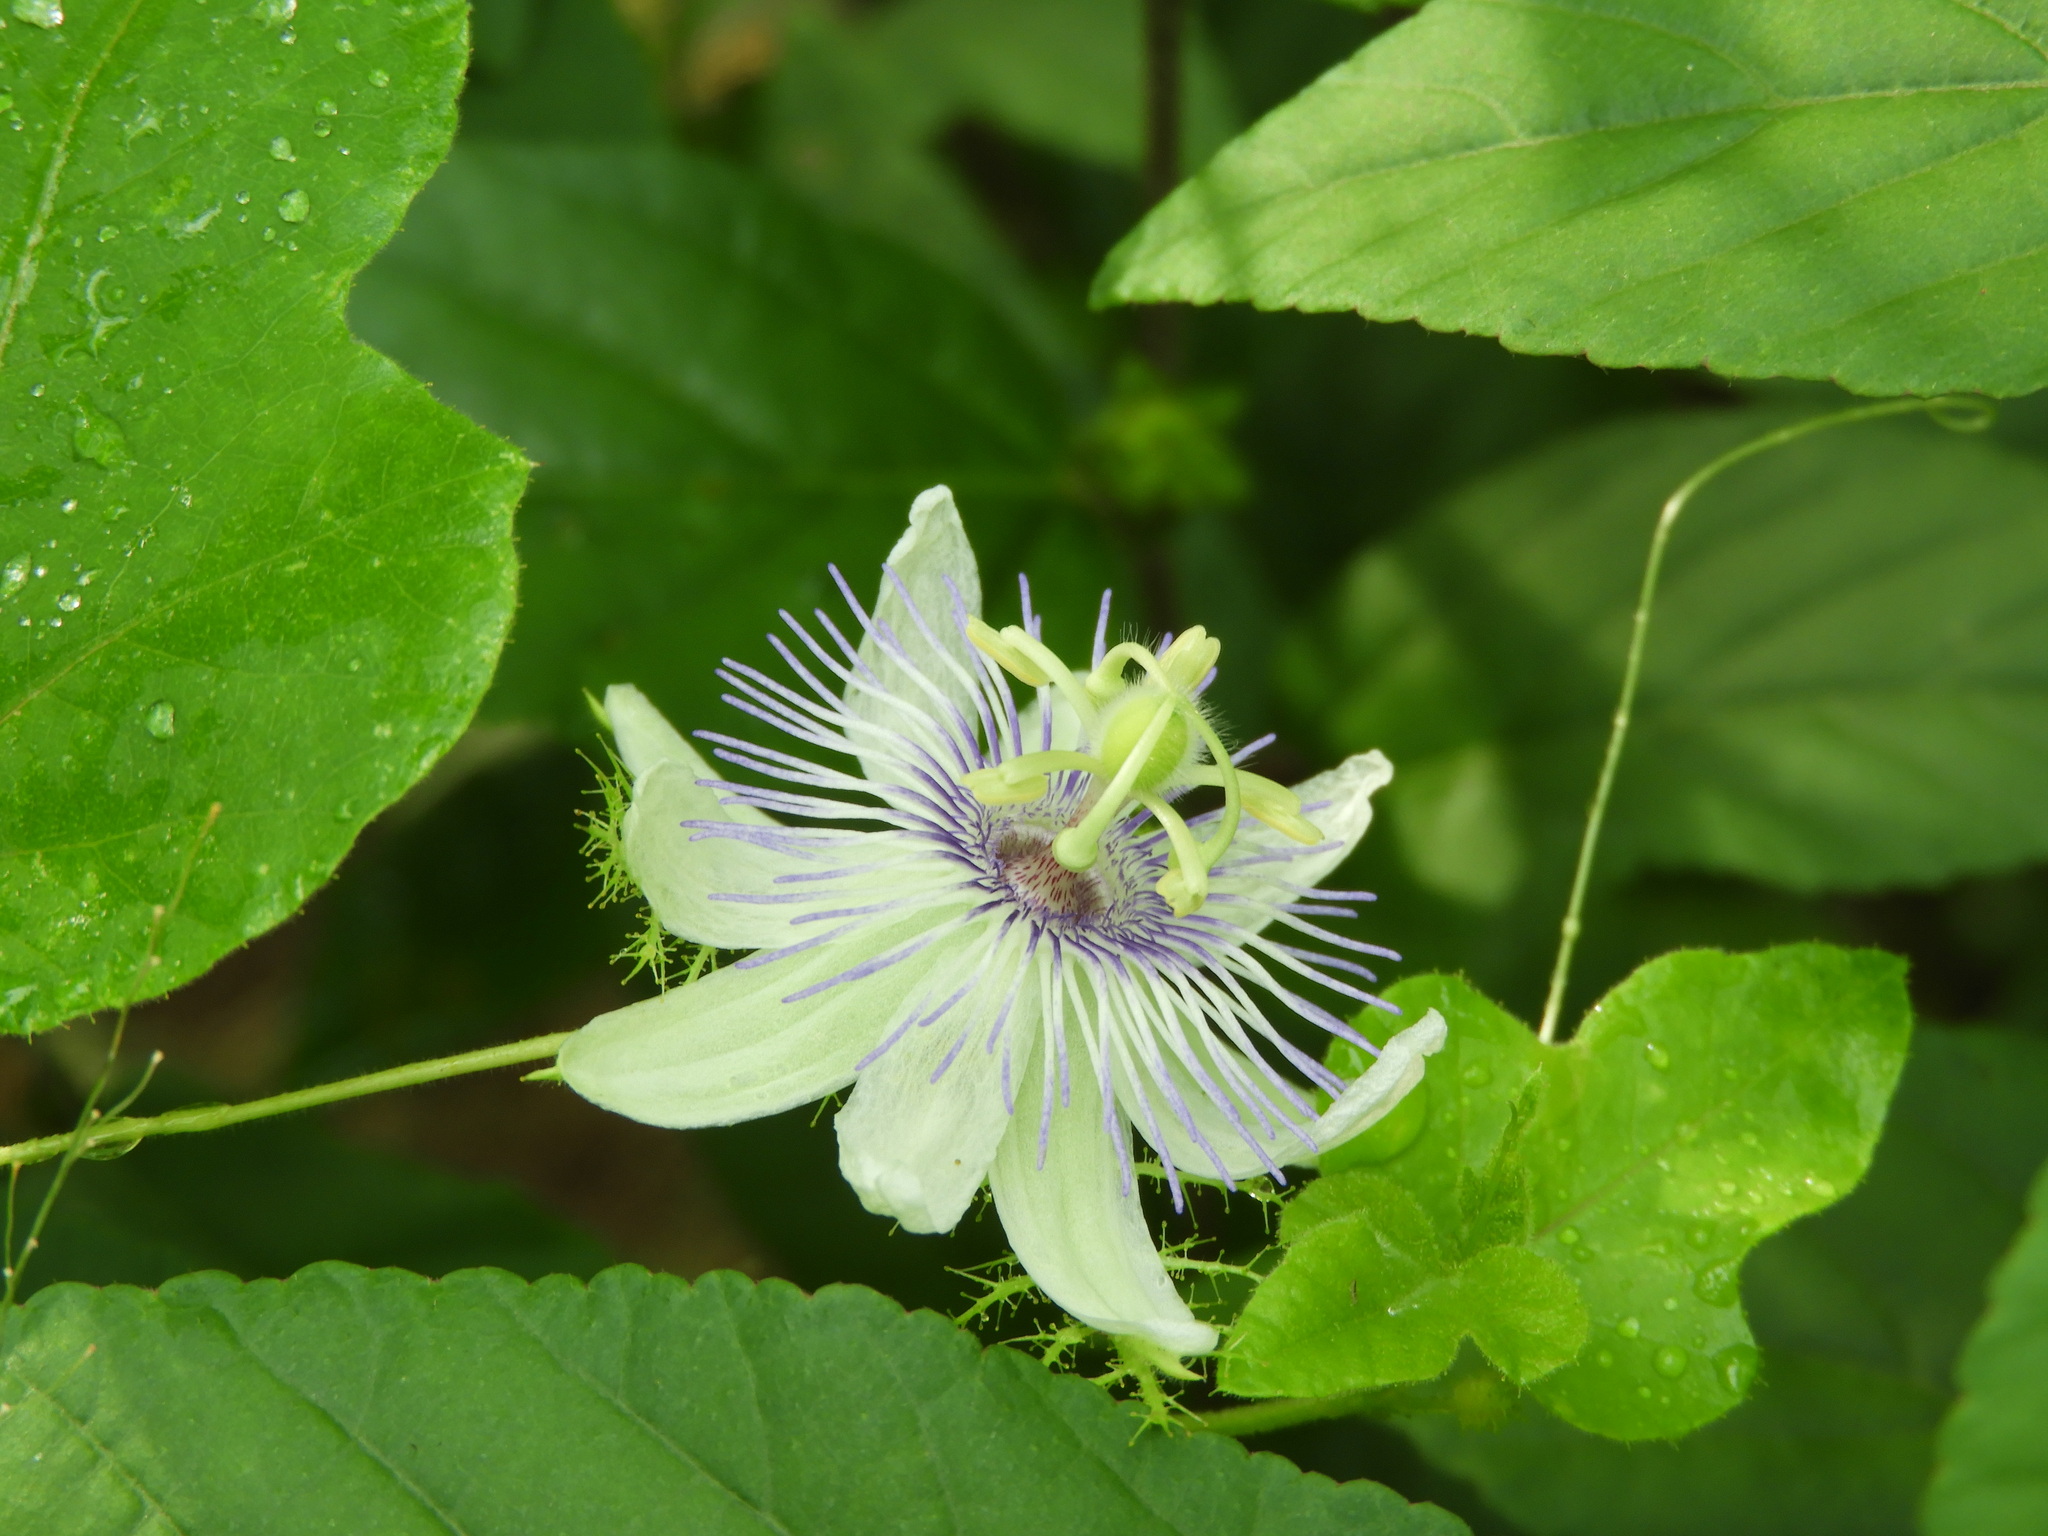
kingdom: Plantae
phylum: Tracheophyta
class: Magnoliopsida
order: Malpighiales
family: Passifloraceae
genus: Passiflora
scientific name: Passiflora foetida
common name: Fetid passionflower
